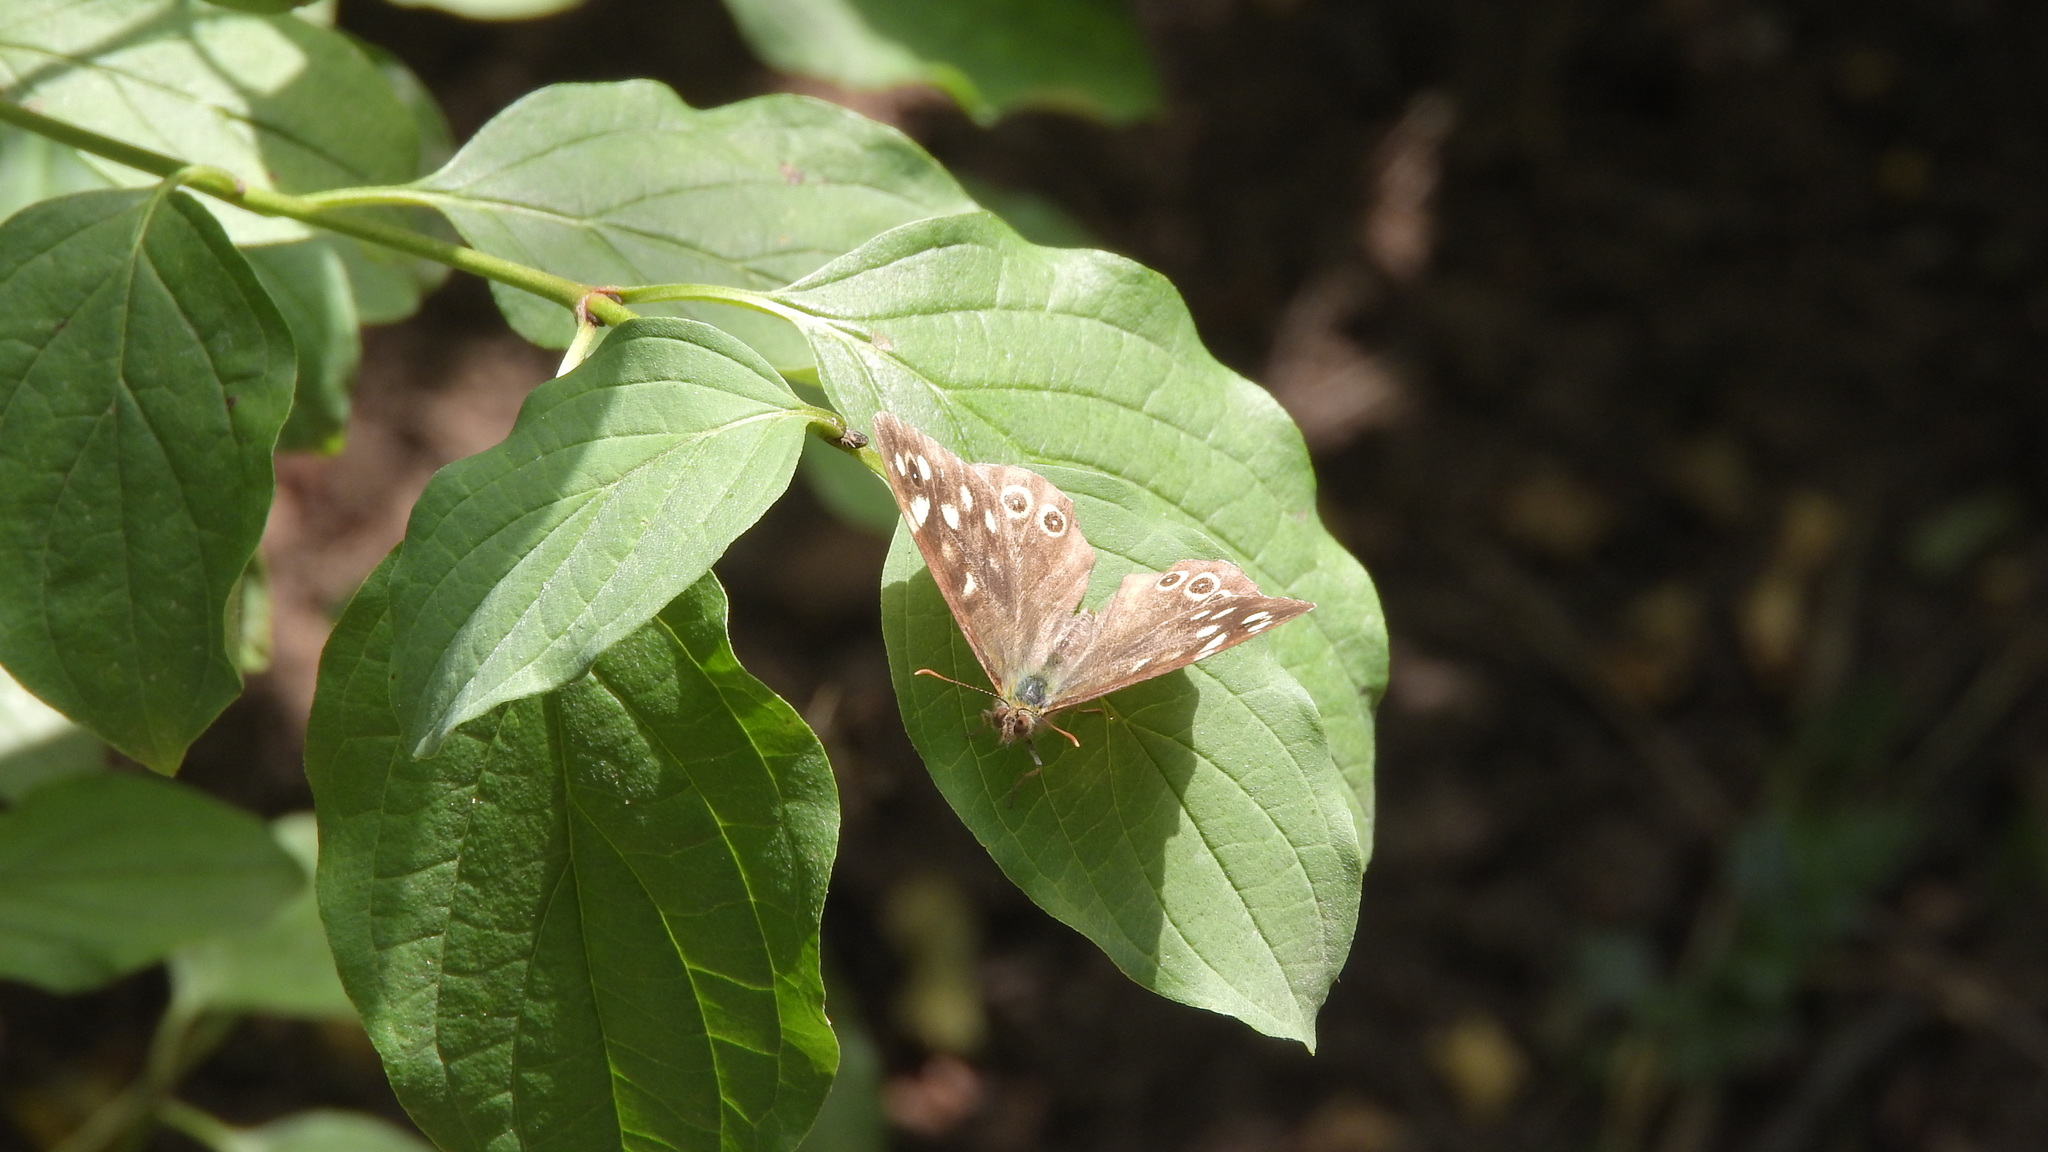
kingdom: Animalia
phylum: Arthropoda
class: Insecta
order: Lepidoptera
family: Nymphalidae
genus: Pararge
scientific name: Pararge aegeria
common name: Speckled wood
